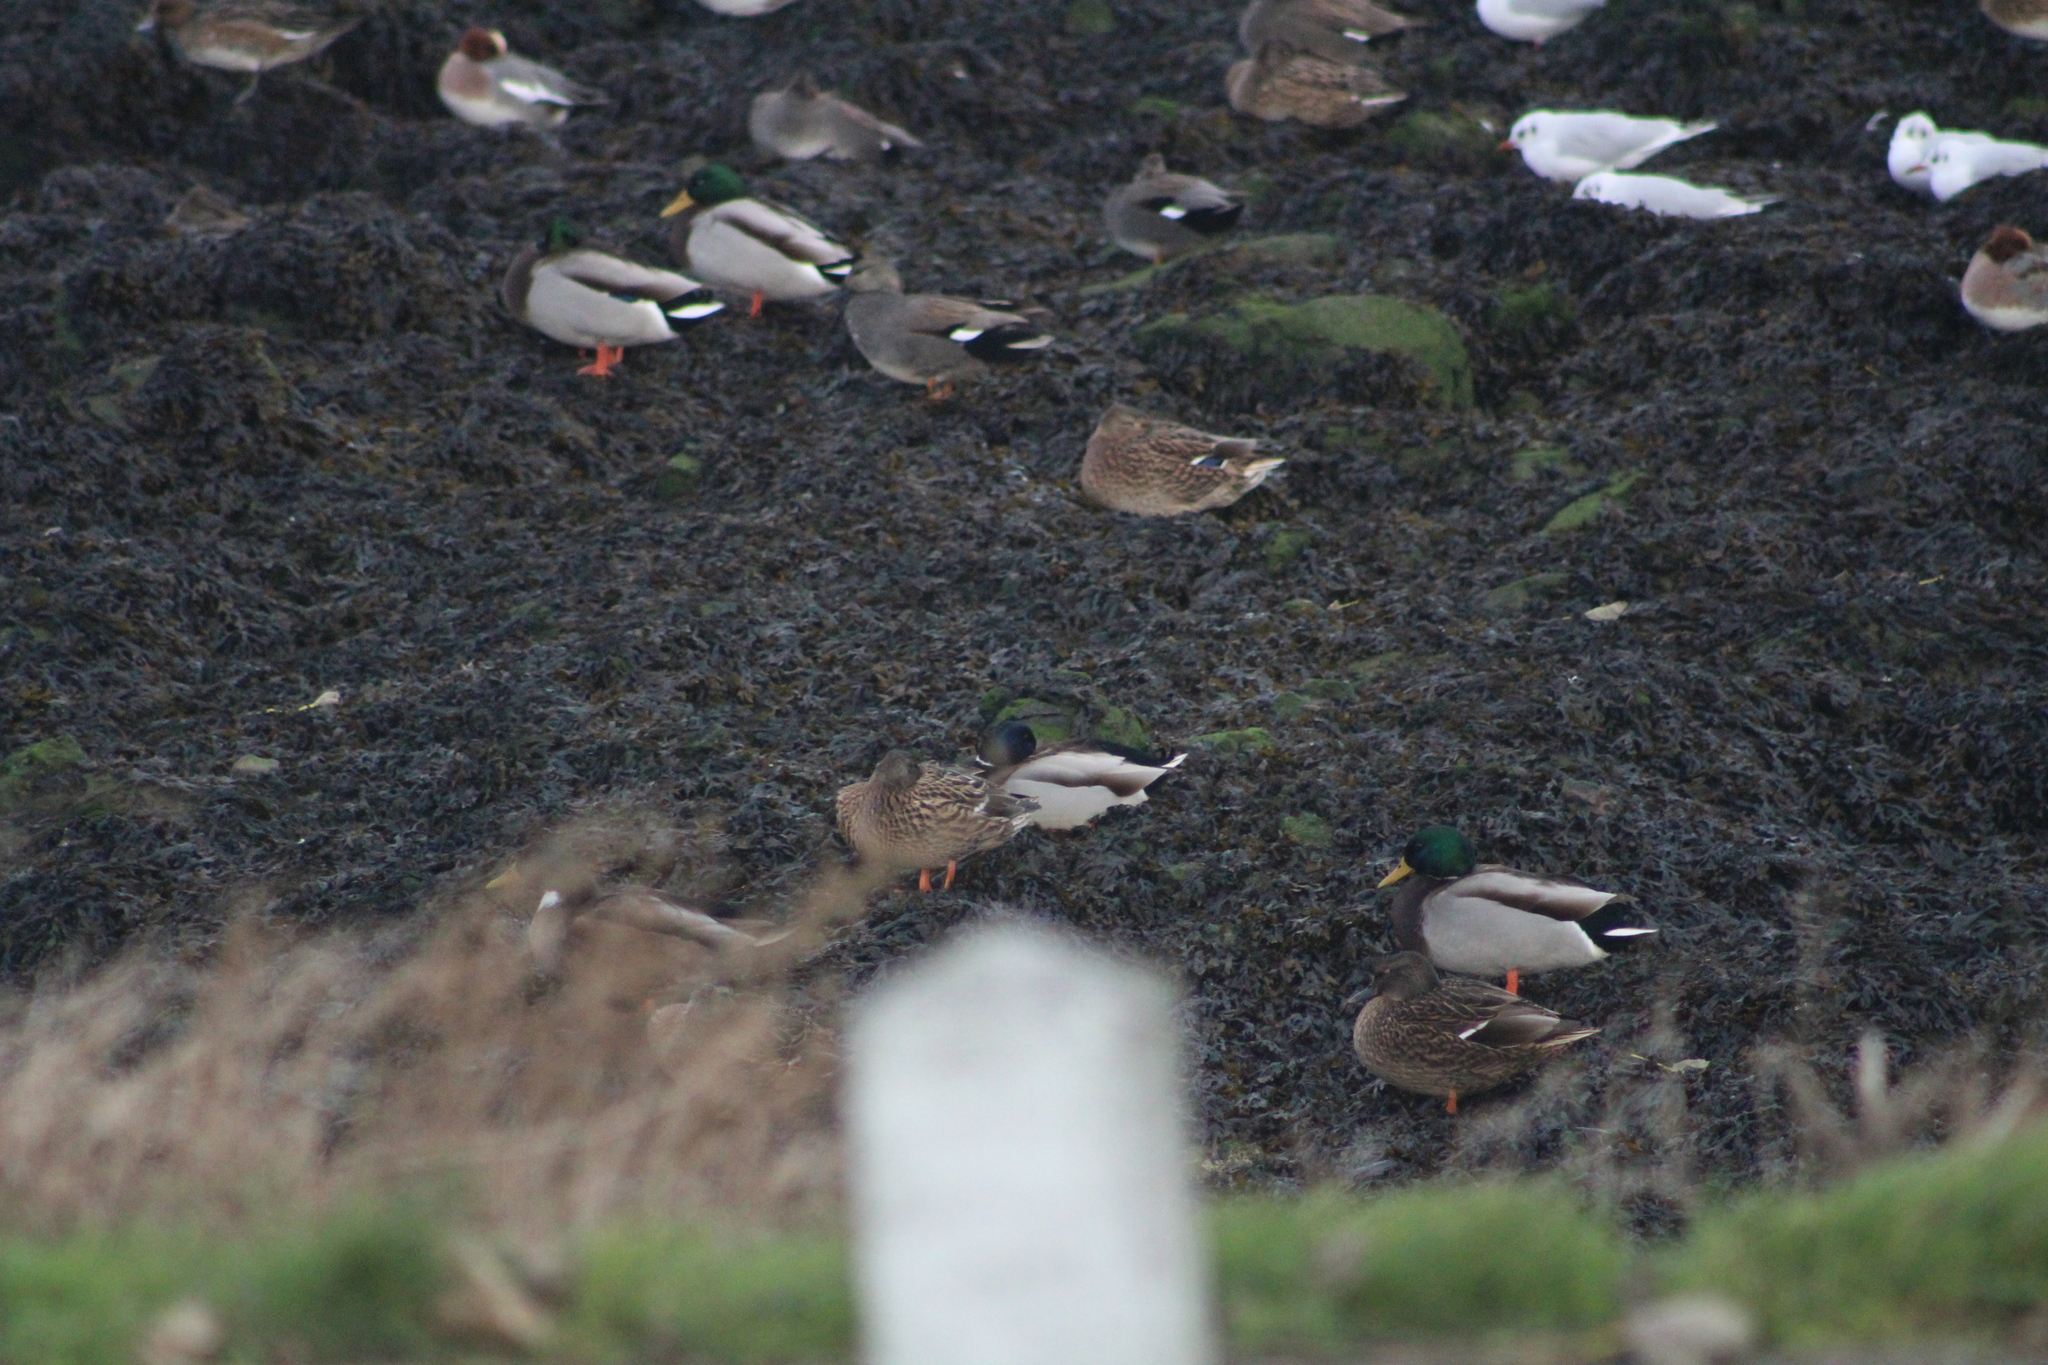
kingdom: Animalia
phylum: Chordata
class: Aves
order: Anseriformes
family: Anatidae
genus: Anas
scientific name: Anas platyrhynchos
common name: Mallard
